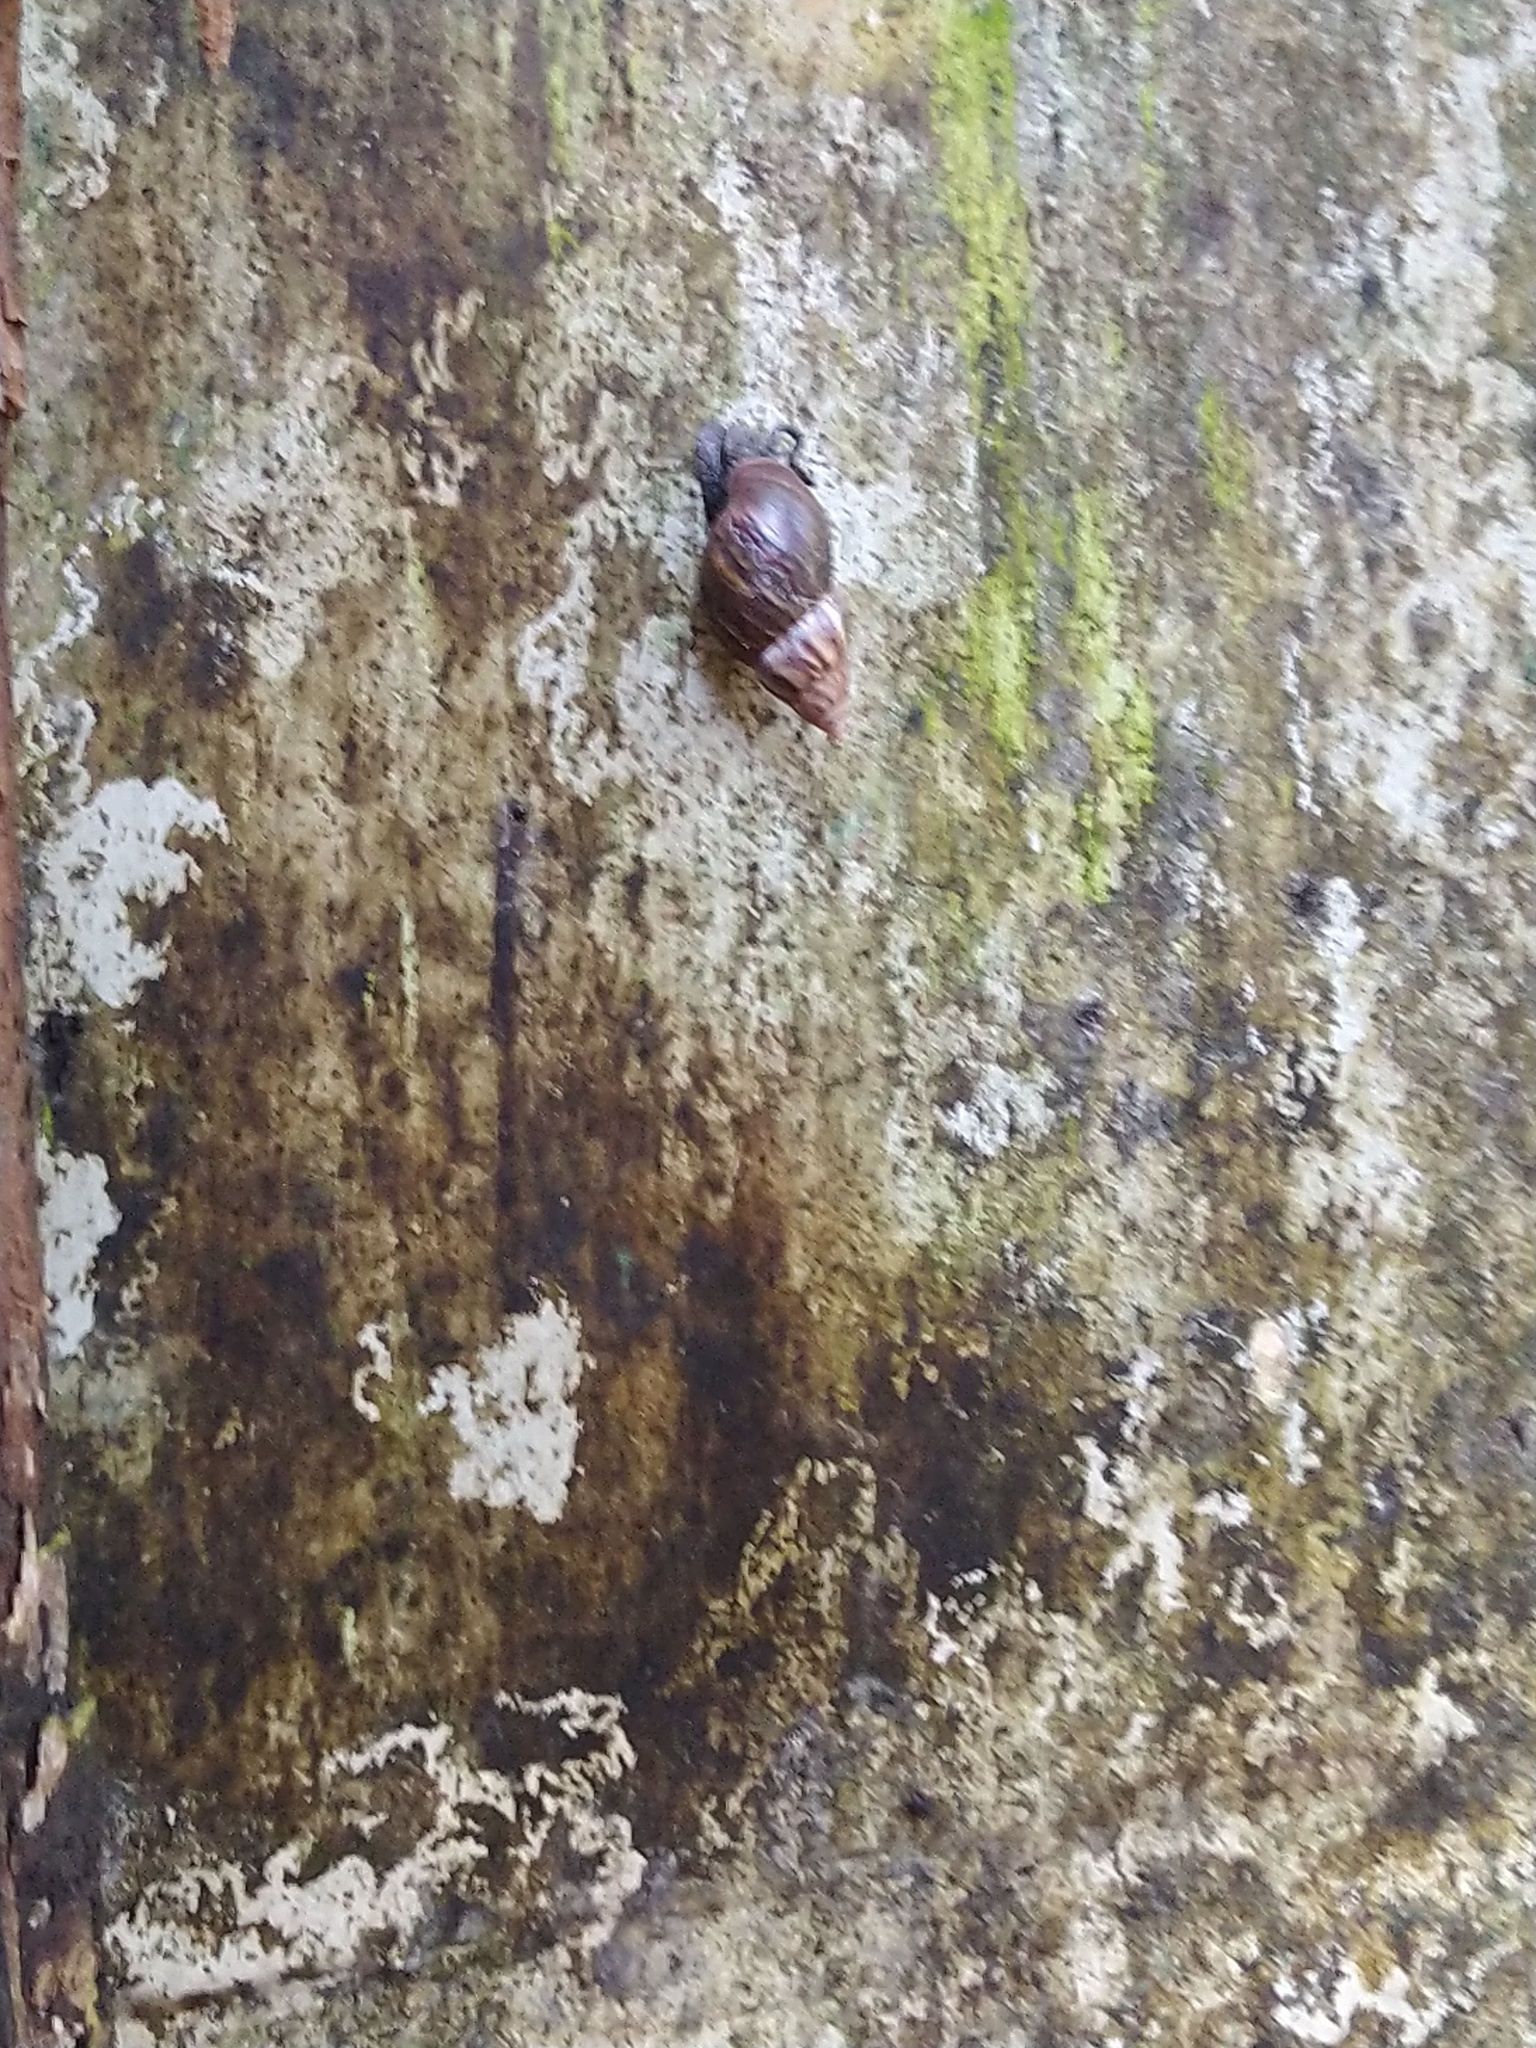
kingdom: Animalia
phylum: Mollusca
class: Gastropoda
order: Stylommatophora
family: Achatinidae
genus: Lissachatina
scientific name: Lissachatina fulica
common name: Giant african snail
